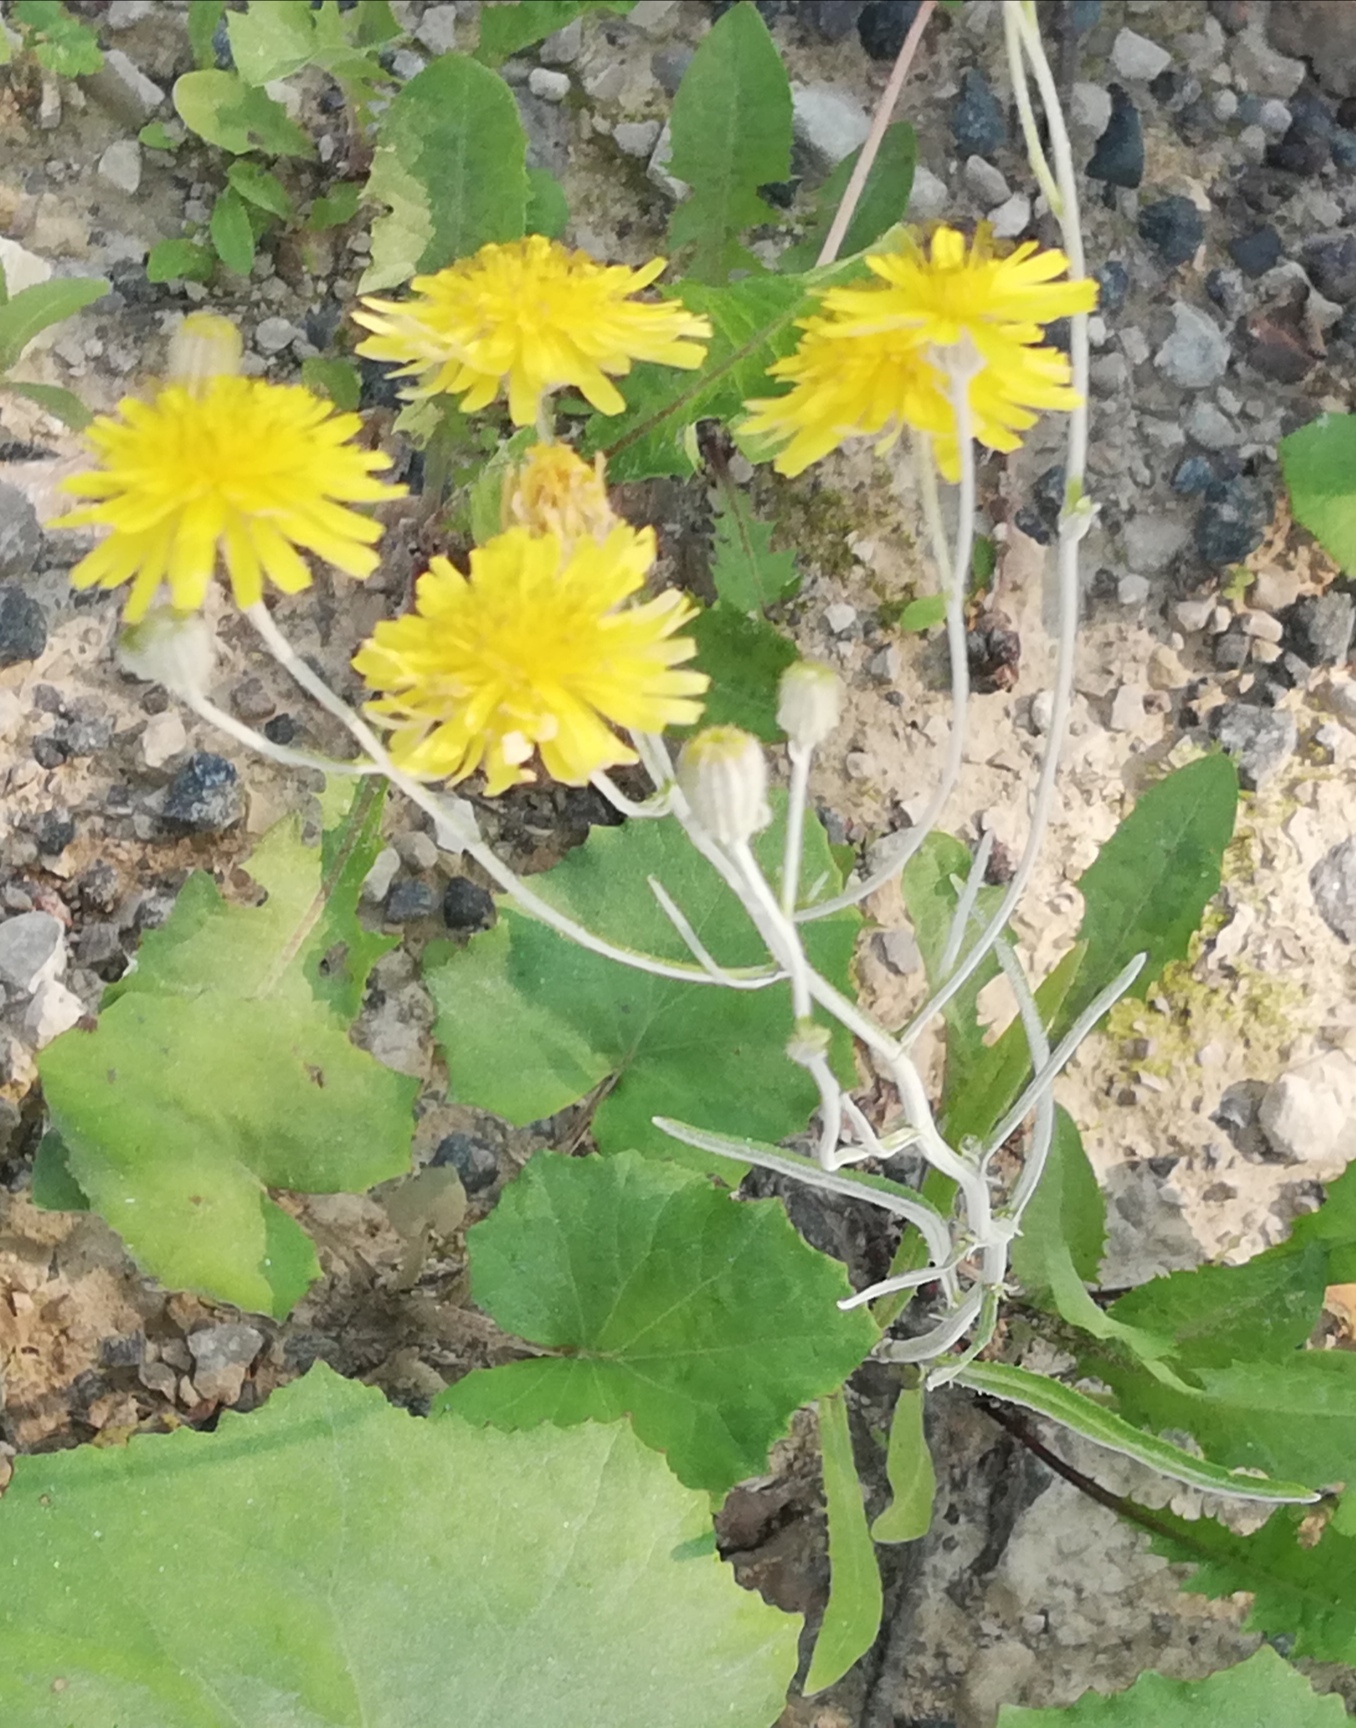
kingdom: Plantae
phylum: Tracheophyta
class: Magnoliopsida
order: Asterales
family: Asteraceae
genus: Crepis
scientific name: Crepis tectorum
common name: Narrow-leaved hawk's-beard
